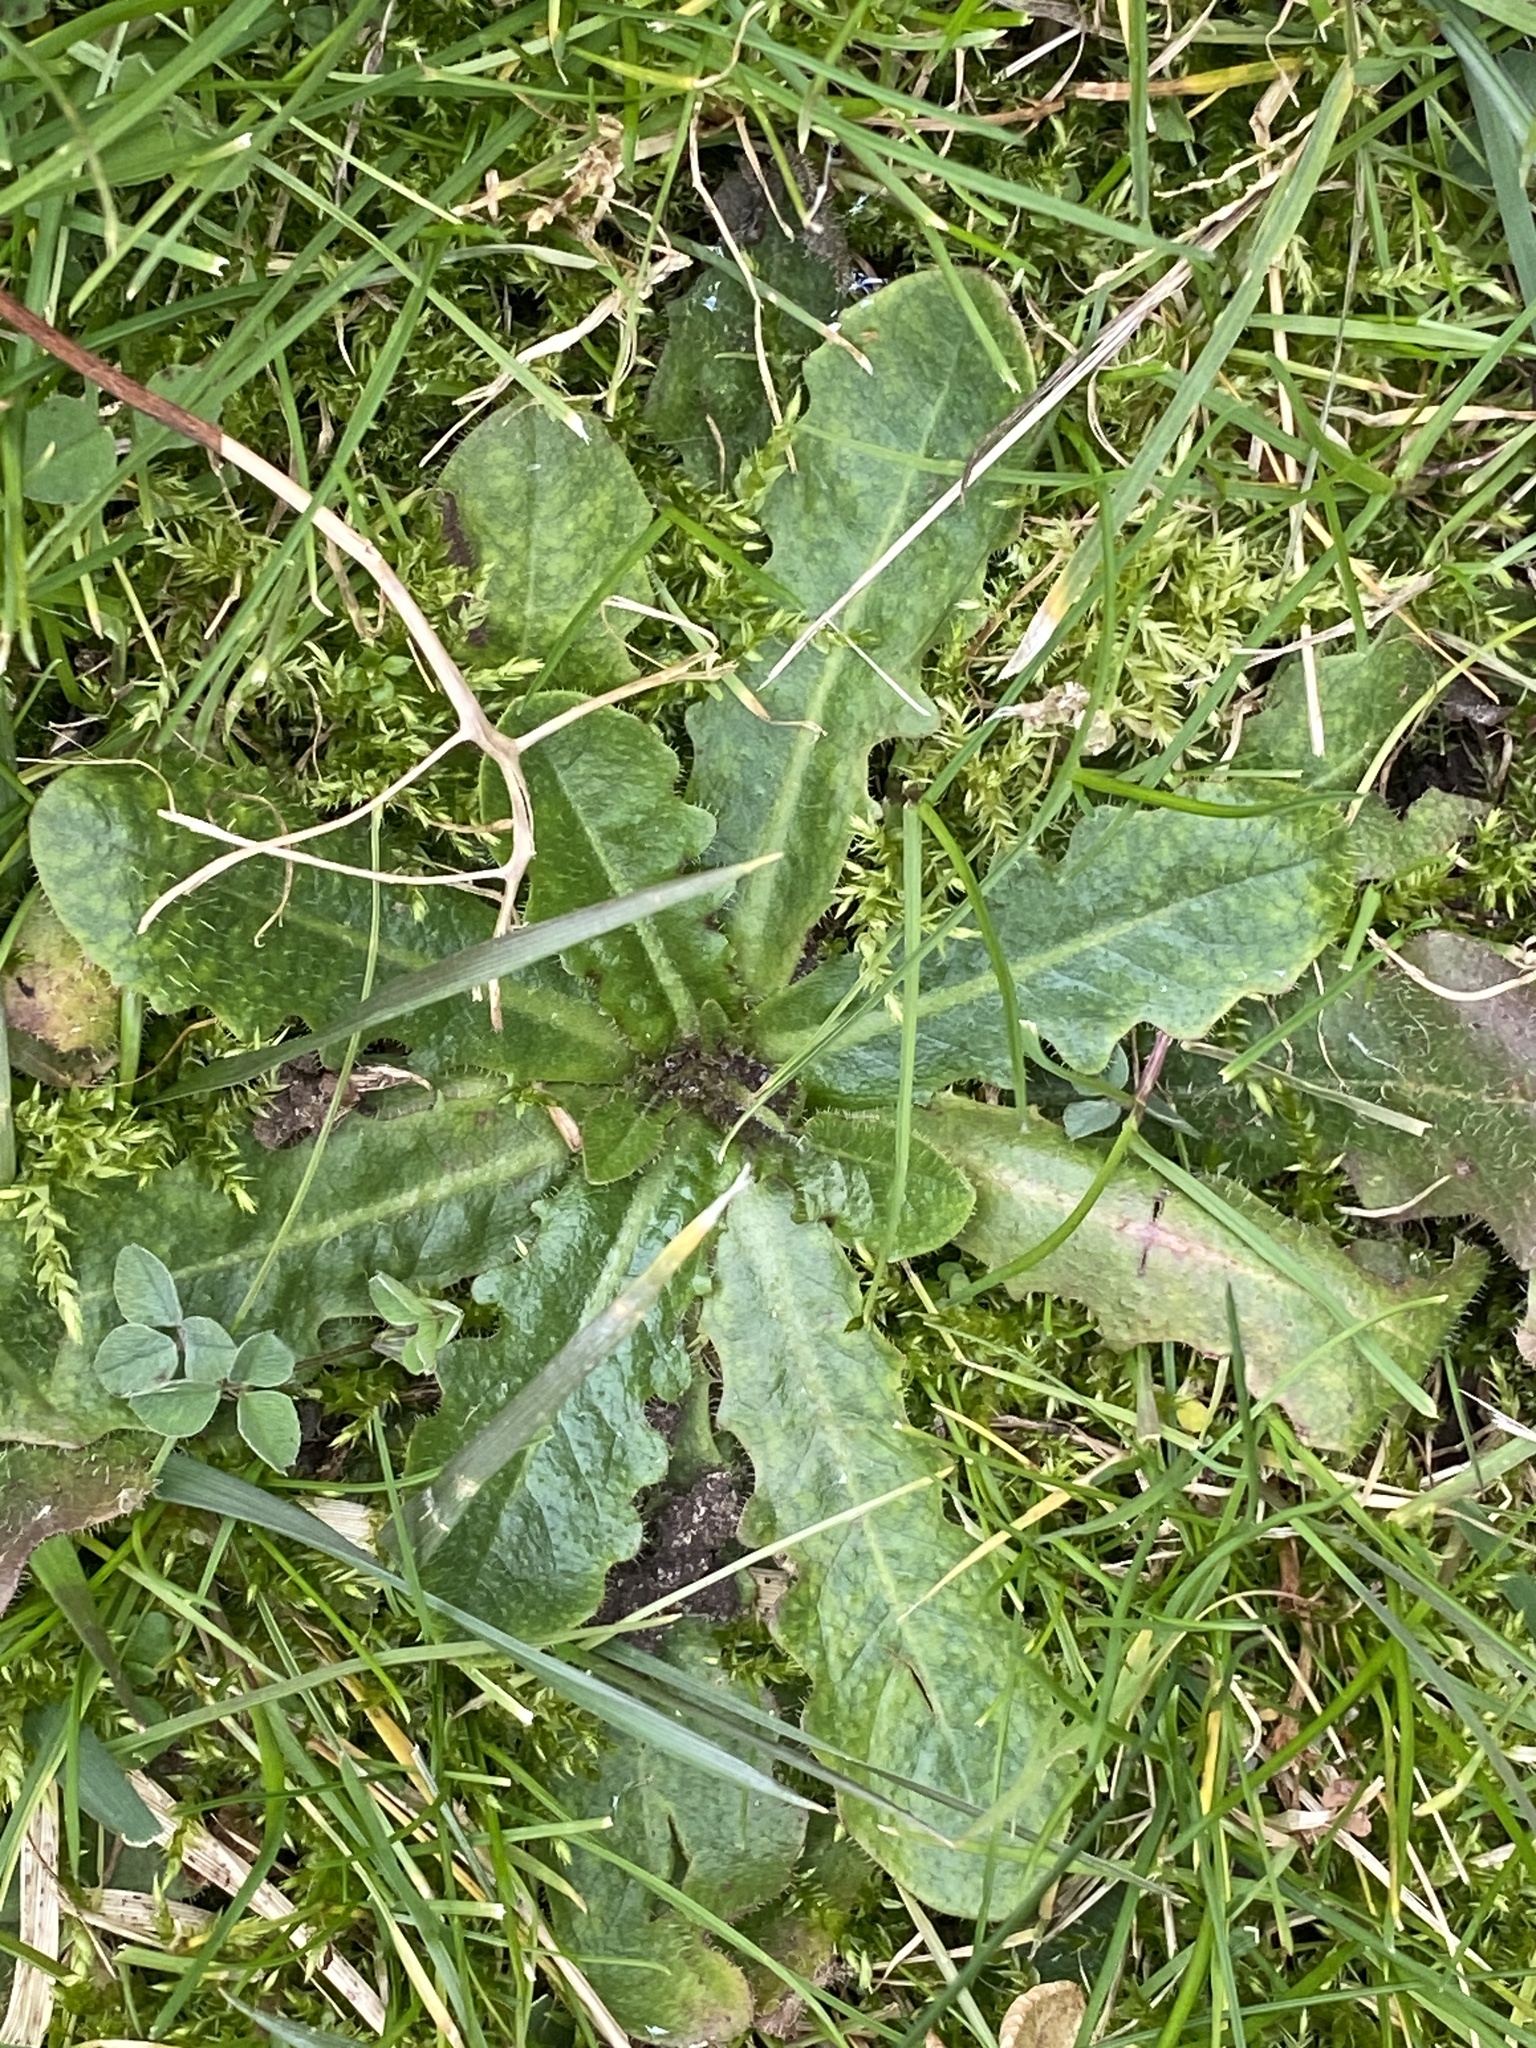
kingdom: Plantae
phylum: Tracheophyta
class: Magnoliopsida
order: Asterales
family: Asteraceae
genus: Hypochaeris
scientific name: Hypochaeris radicata
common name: Flatweed
